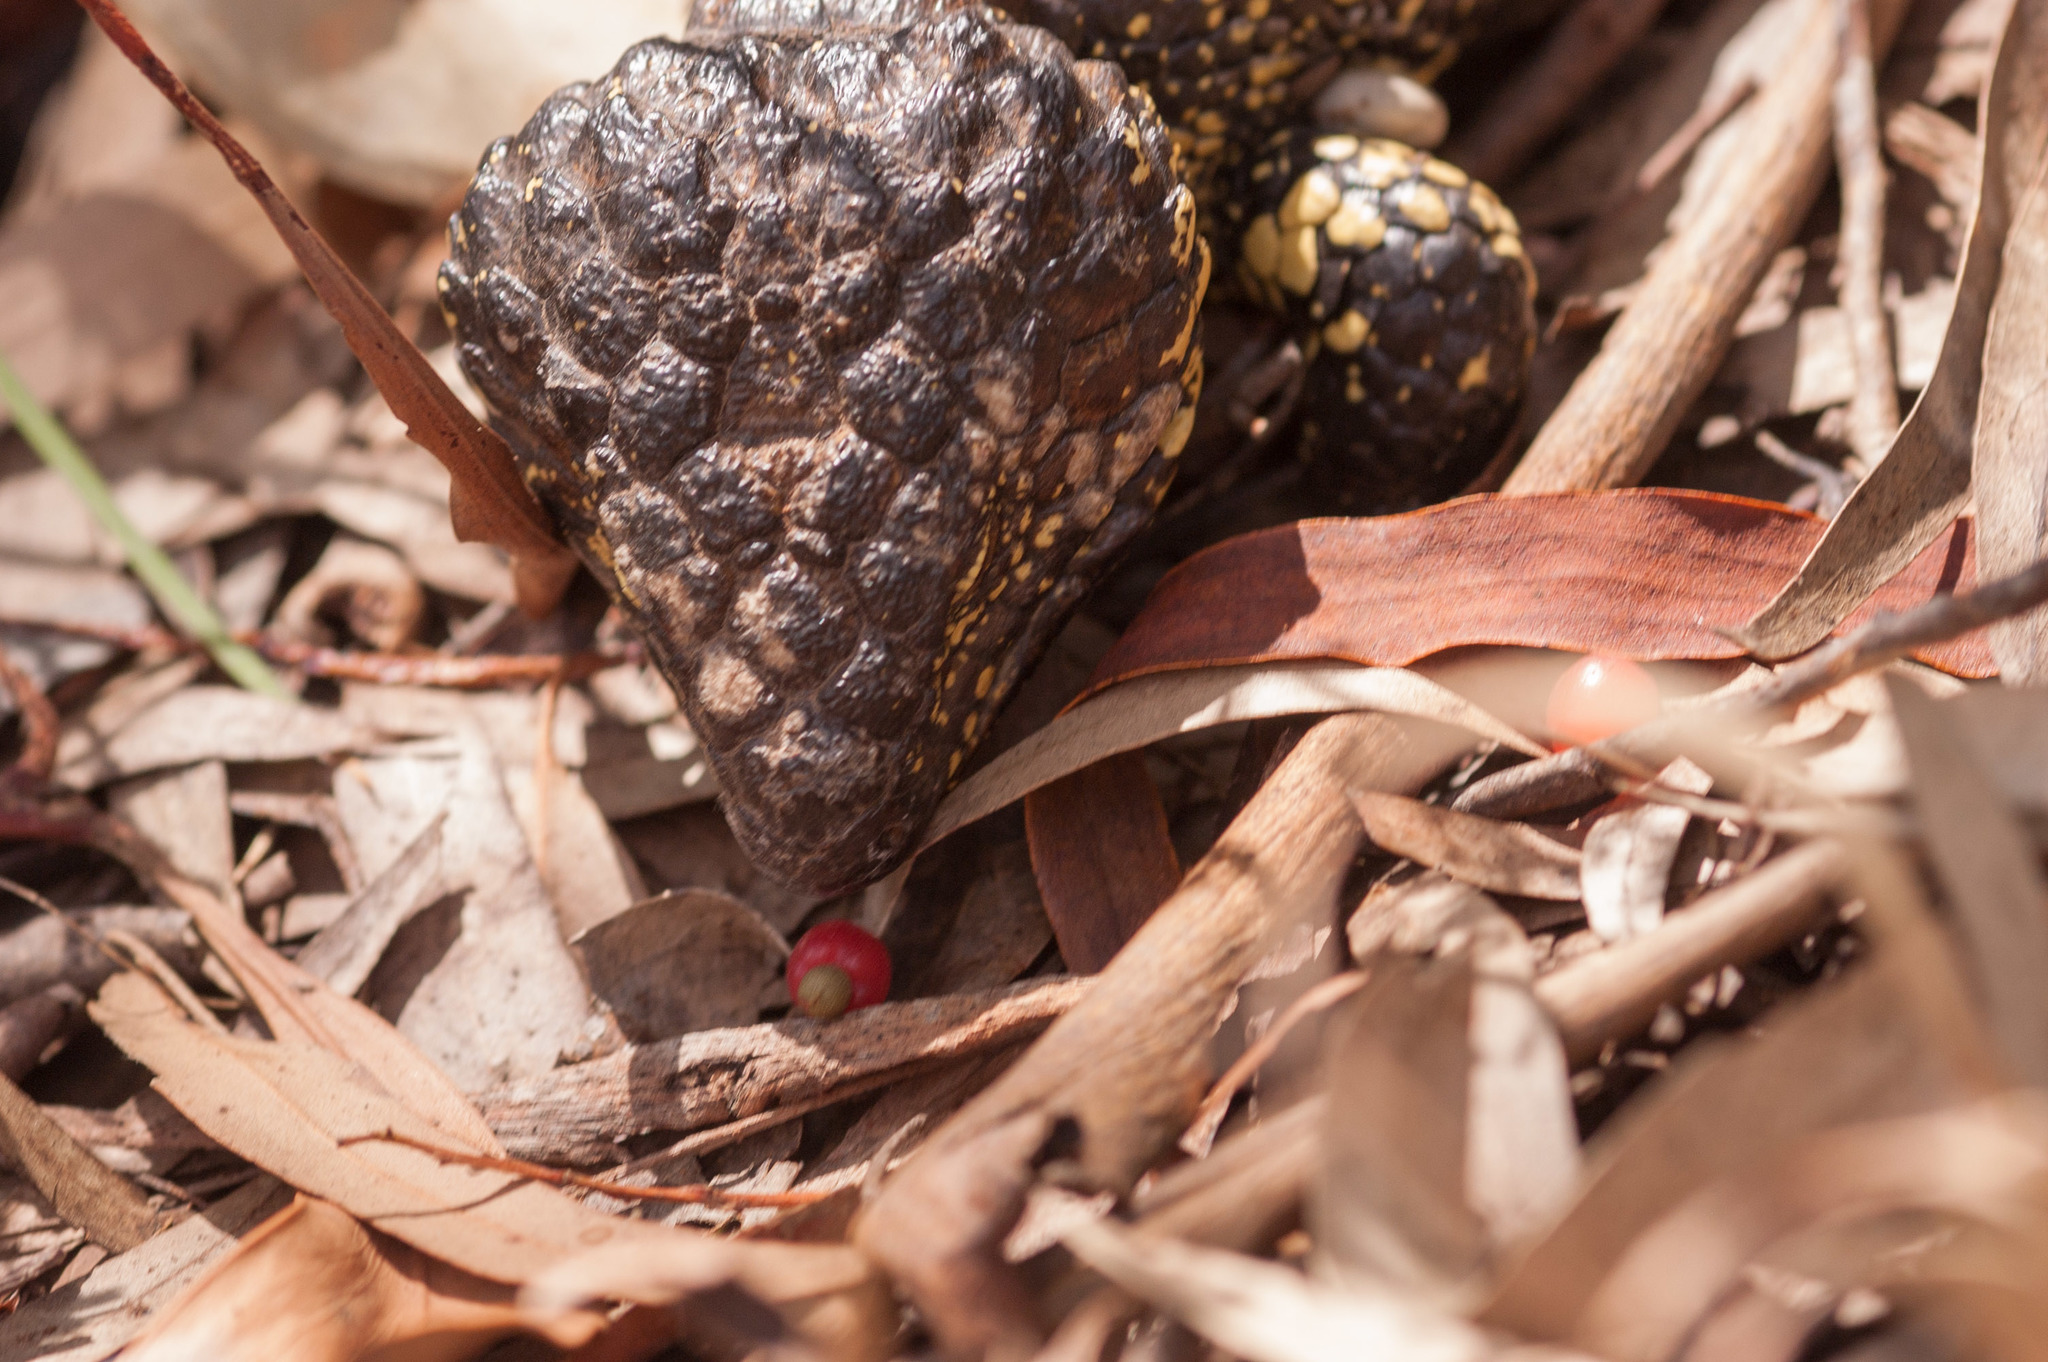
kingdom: Animalia
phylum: Chordata
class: Squamata
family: Scincidae
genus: Tiliqua
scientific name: Tiliqua rugosa
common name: Pinecone lizard
